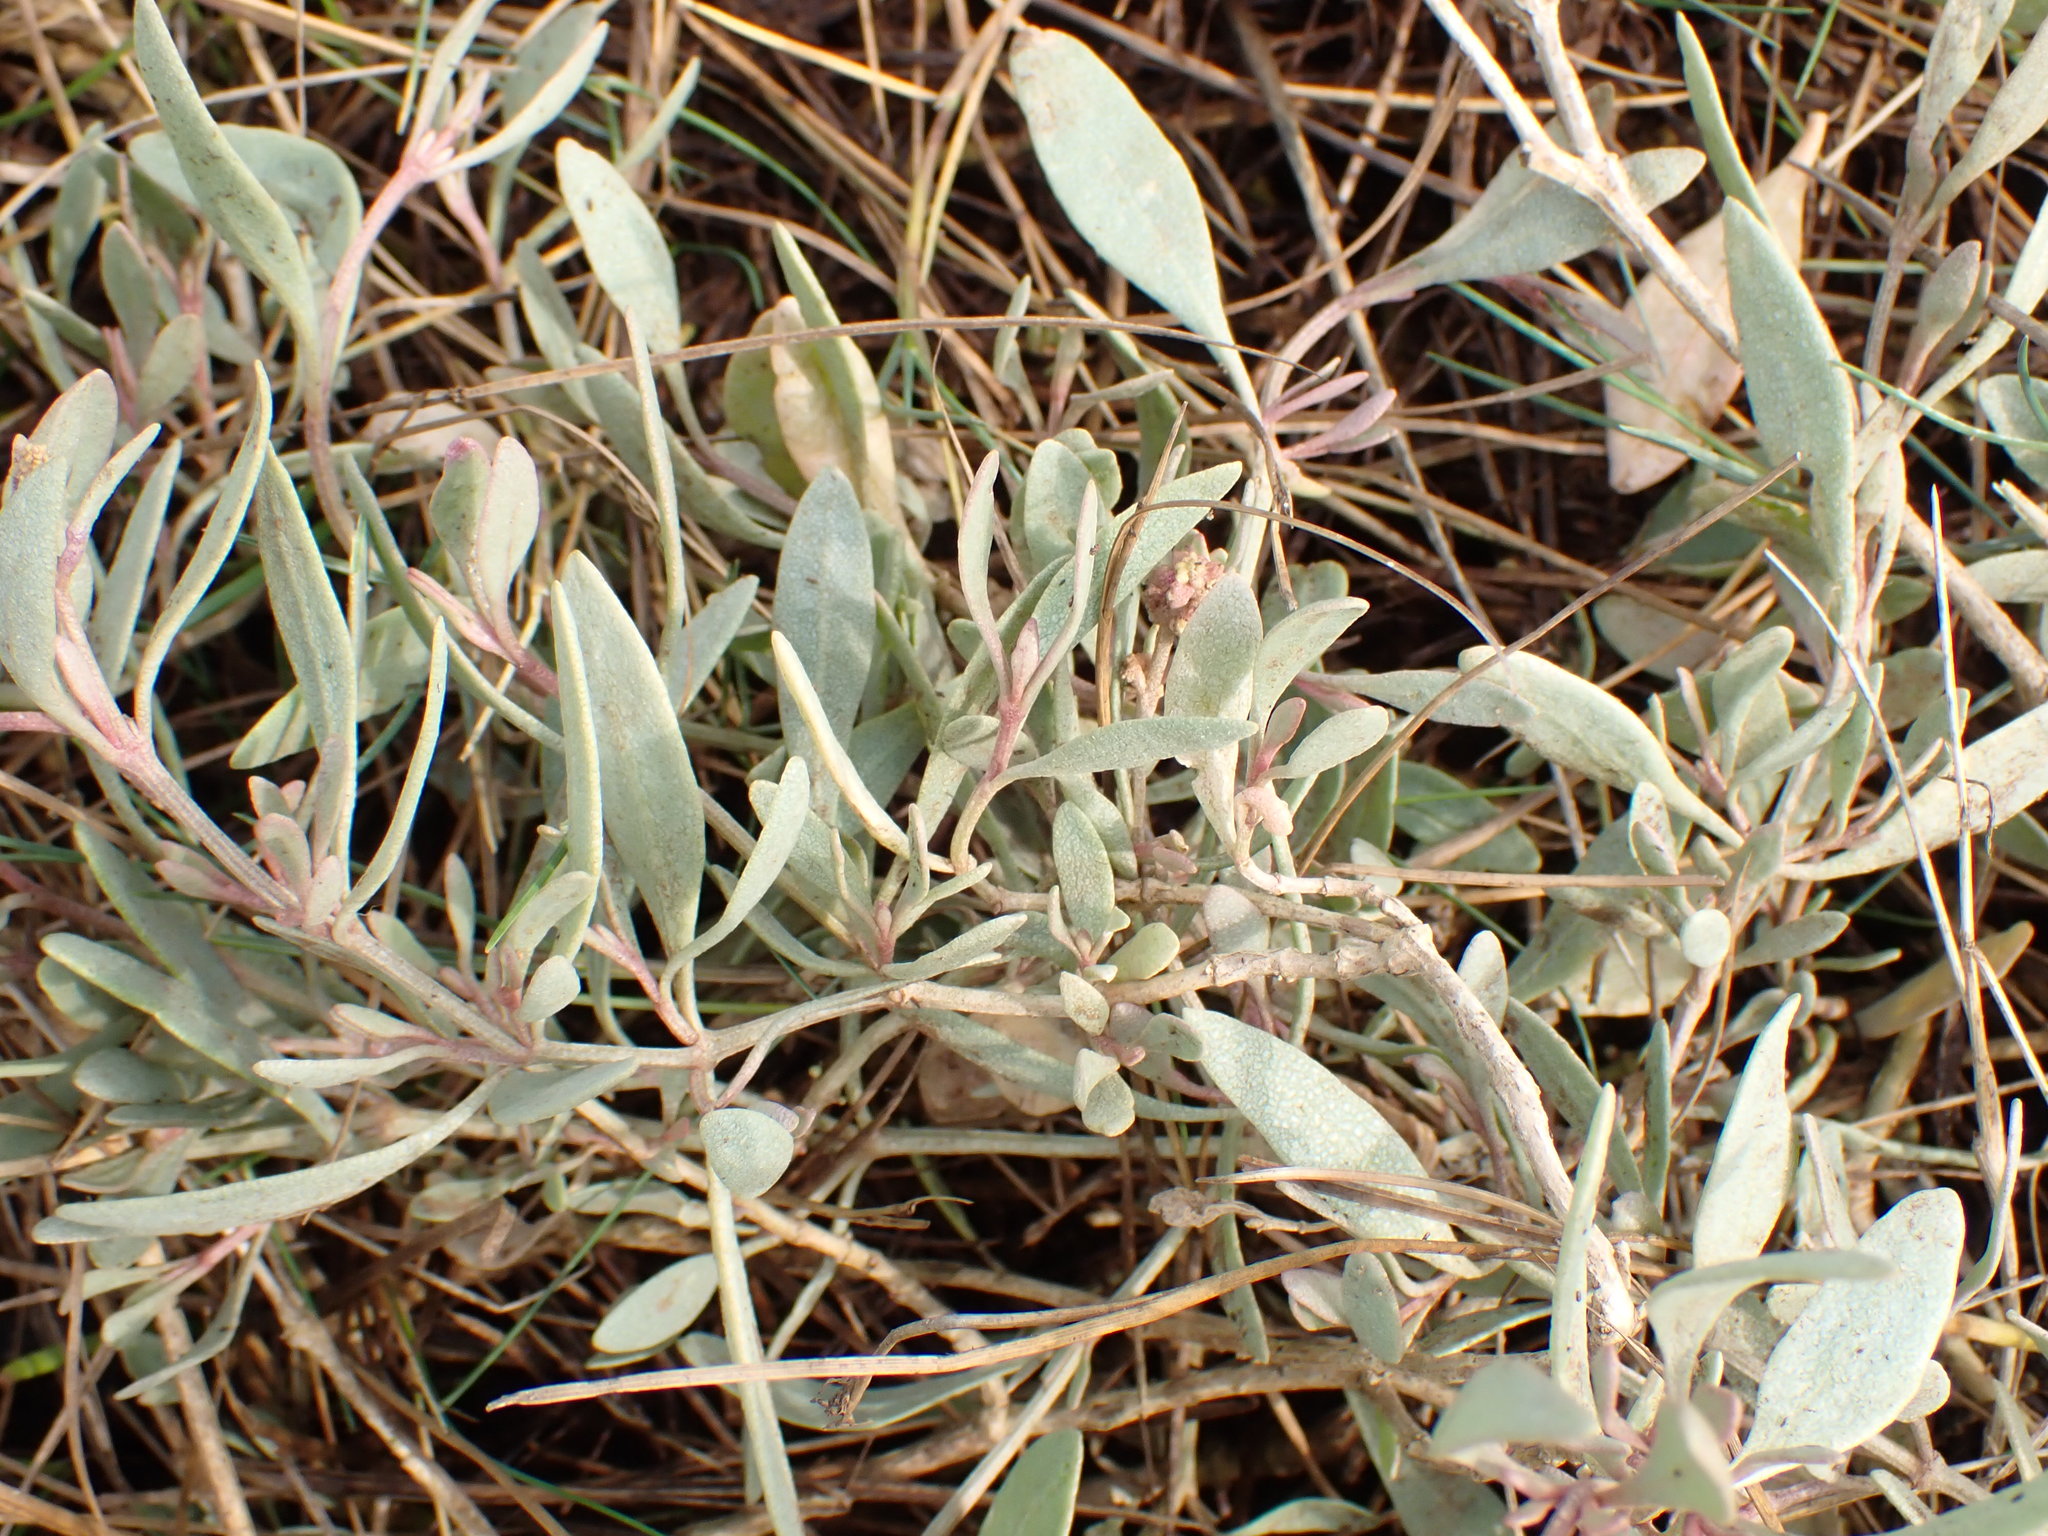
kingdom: Plantae
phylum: Tracheophyta
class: Magnoliopsida
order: Caryophyllales
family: Amaranthaceae
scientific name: Amaranthaceae
